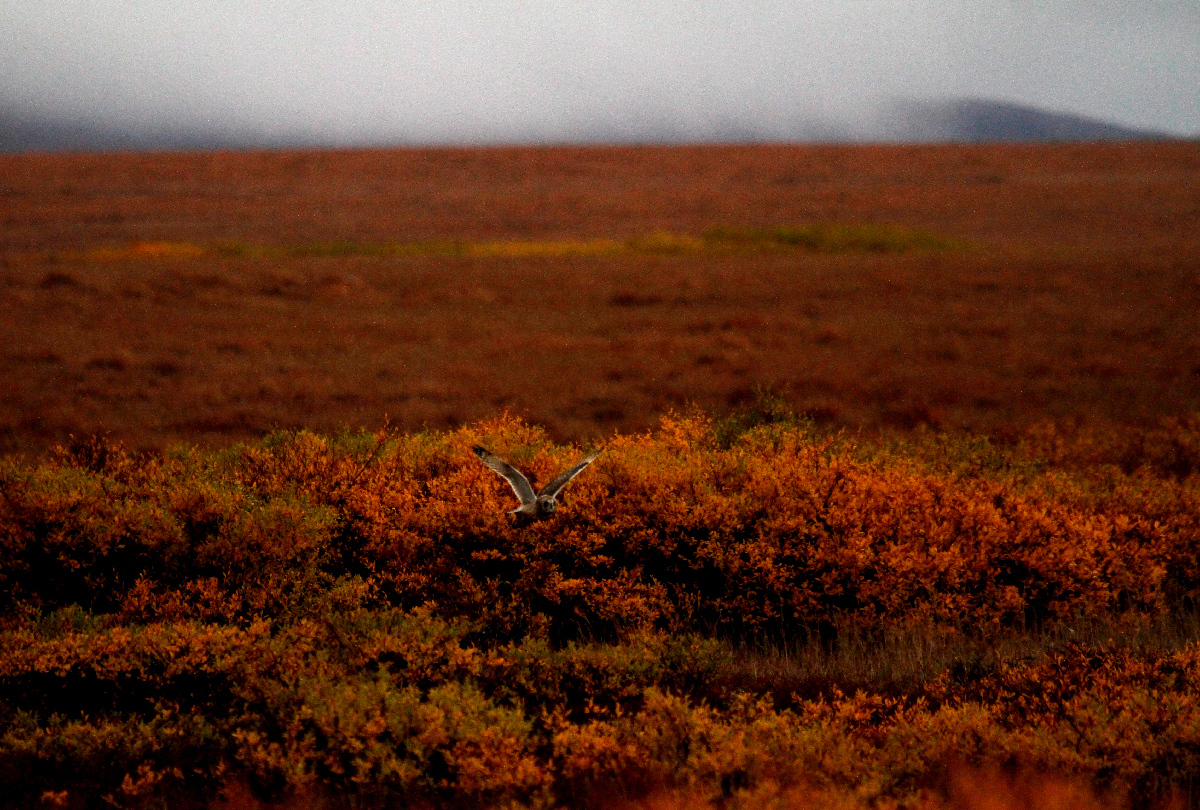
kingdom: Animalia
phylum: Chordata
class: Aves
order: Strigiformes
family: Strigidae
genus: Asio
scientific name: Asio flammeus
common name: Short-eared owl
